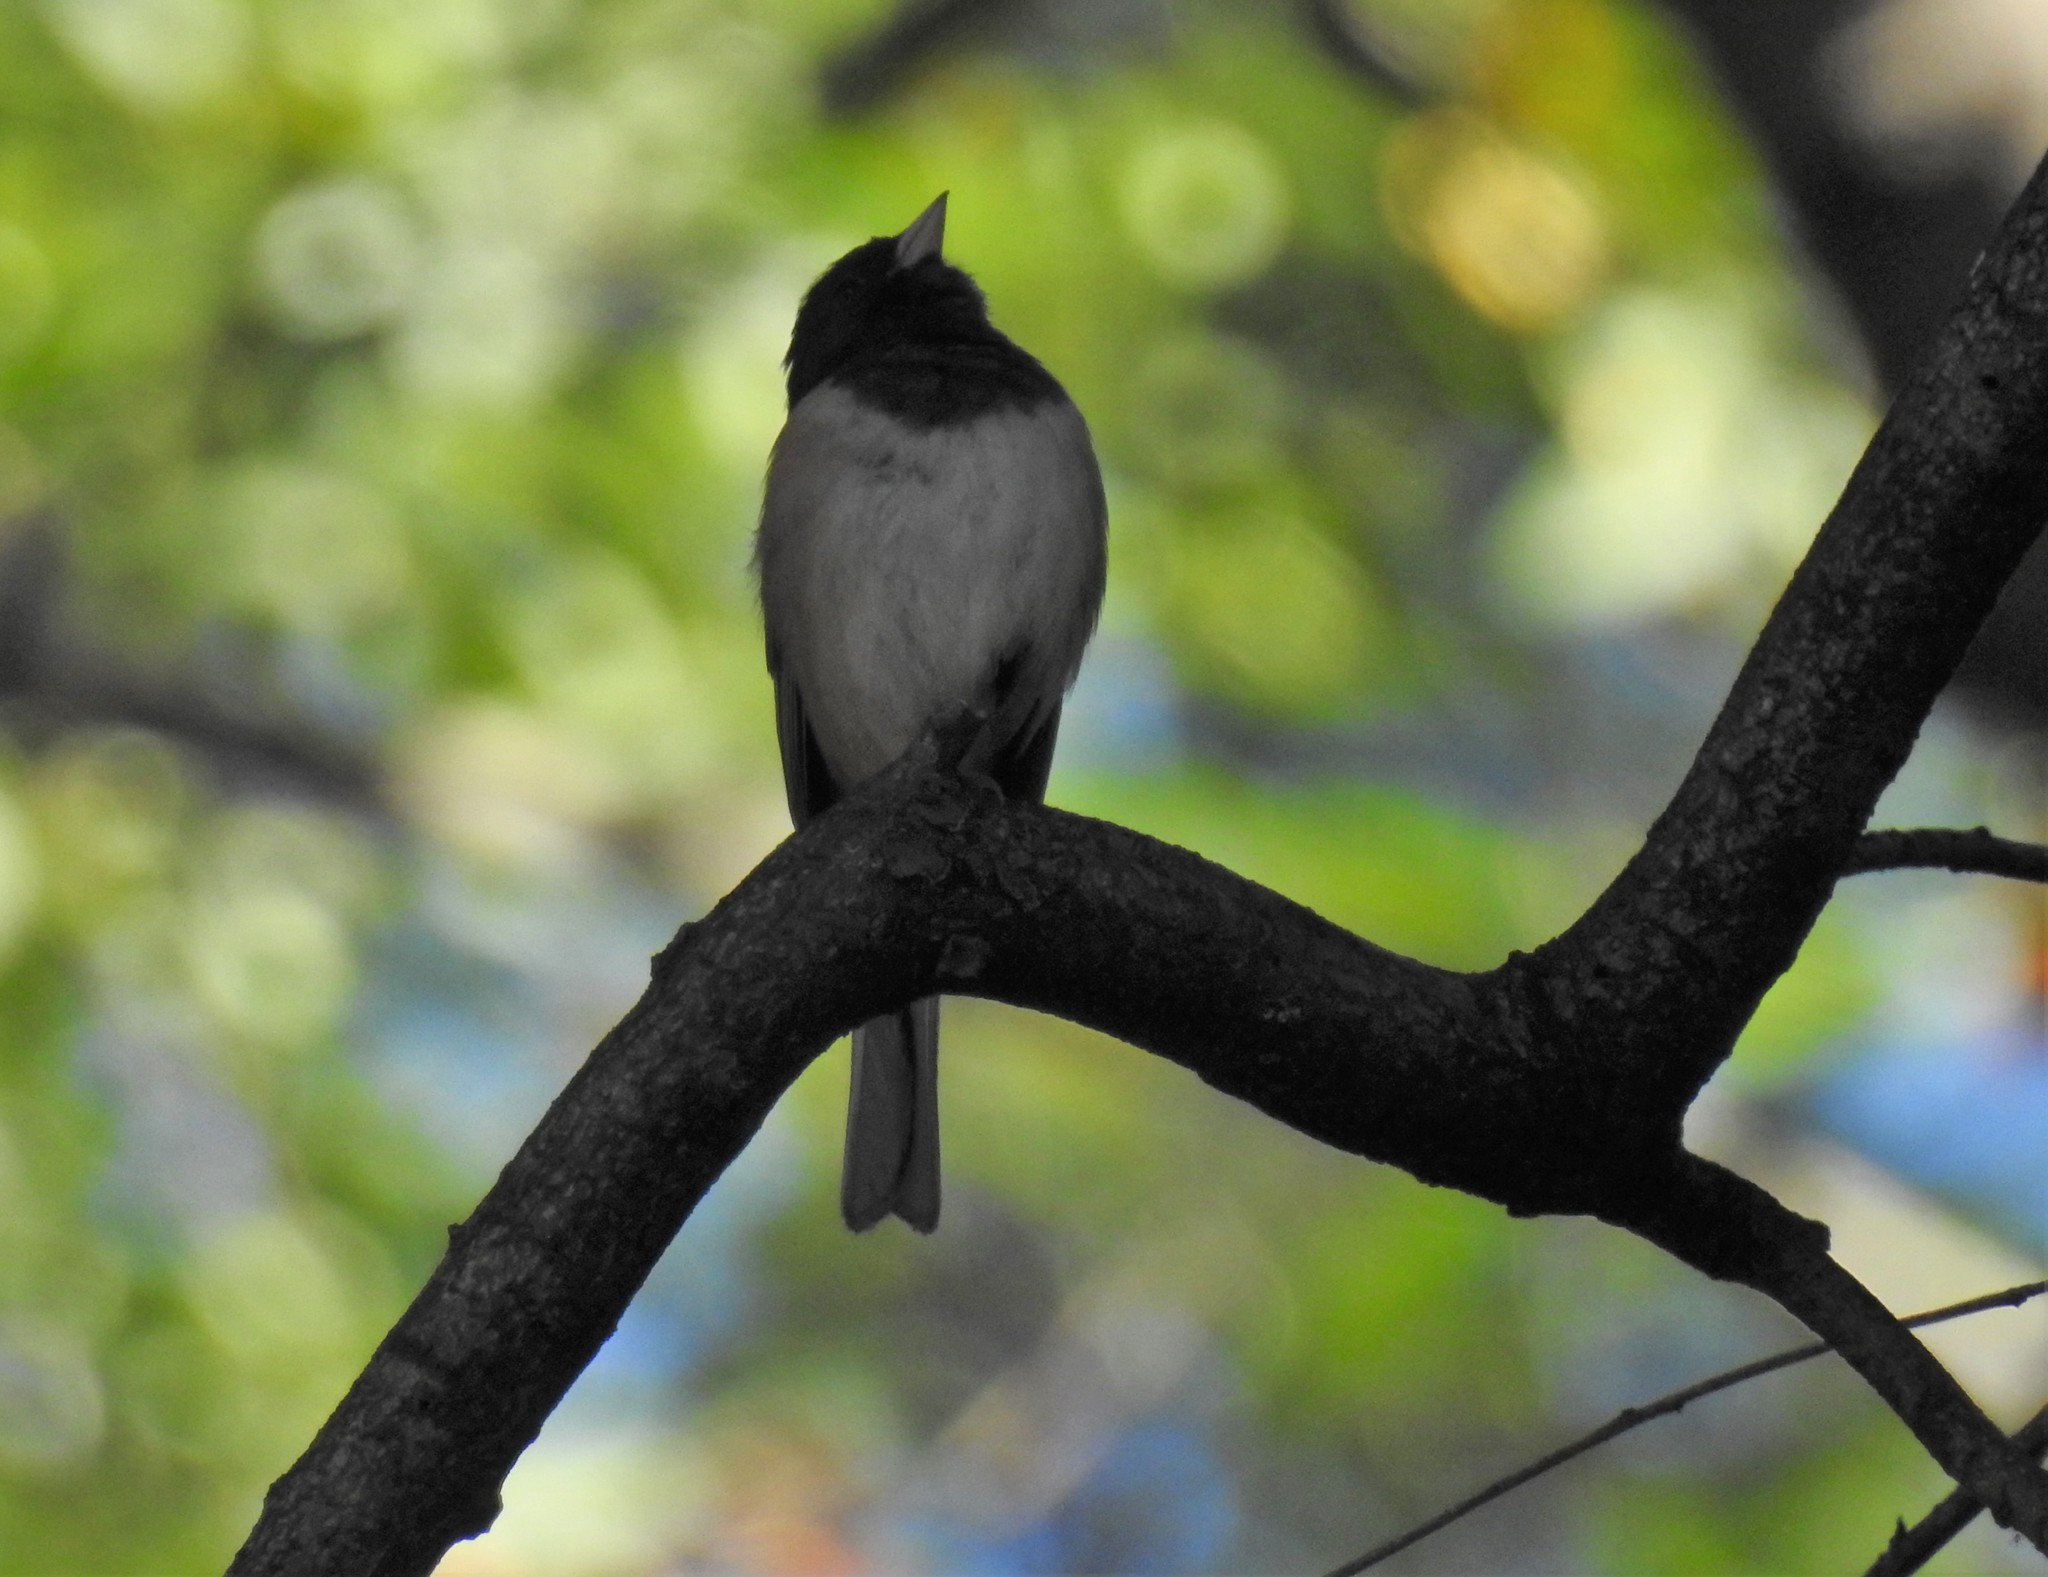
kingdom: Animalia
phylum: Chordata
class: Aves
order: Passeriformes
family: Passerellidae
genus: Junco
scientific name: Junco hyemalis
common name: Dark-eyed junco
